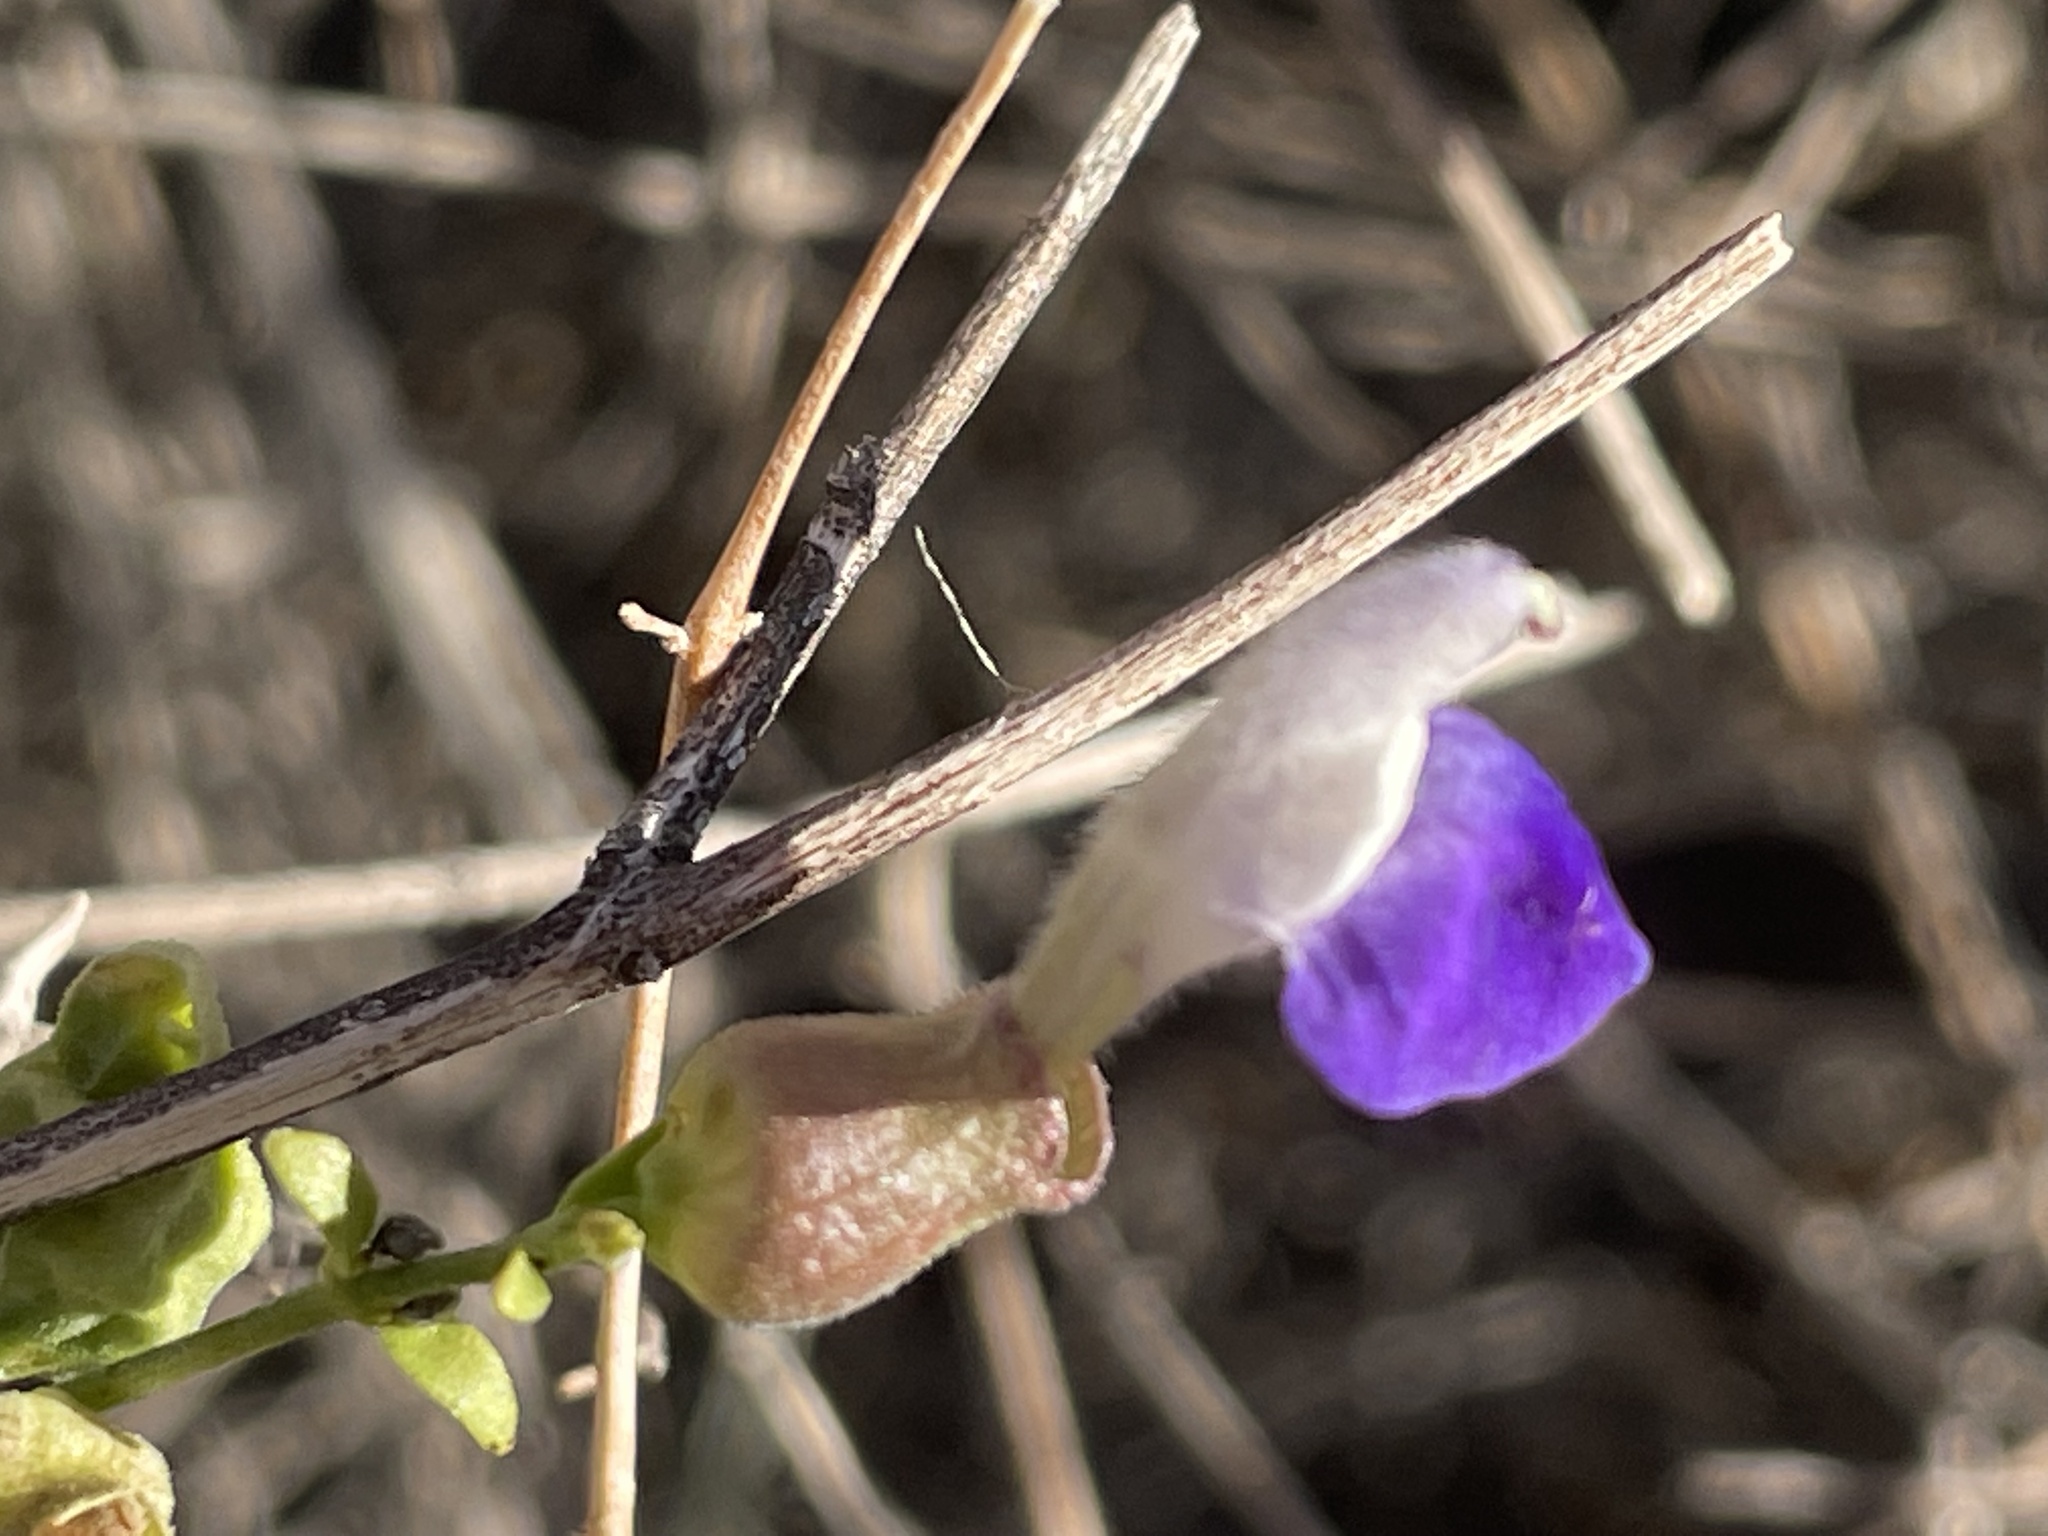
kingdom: Plantae
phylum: Tracheophyta
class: Magnoliopsida
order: Lamiales
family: Lamiaceae
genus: Scutellaria
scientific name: Scutellaria mexicana
